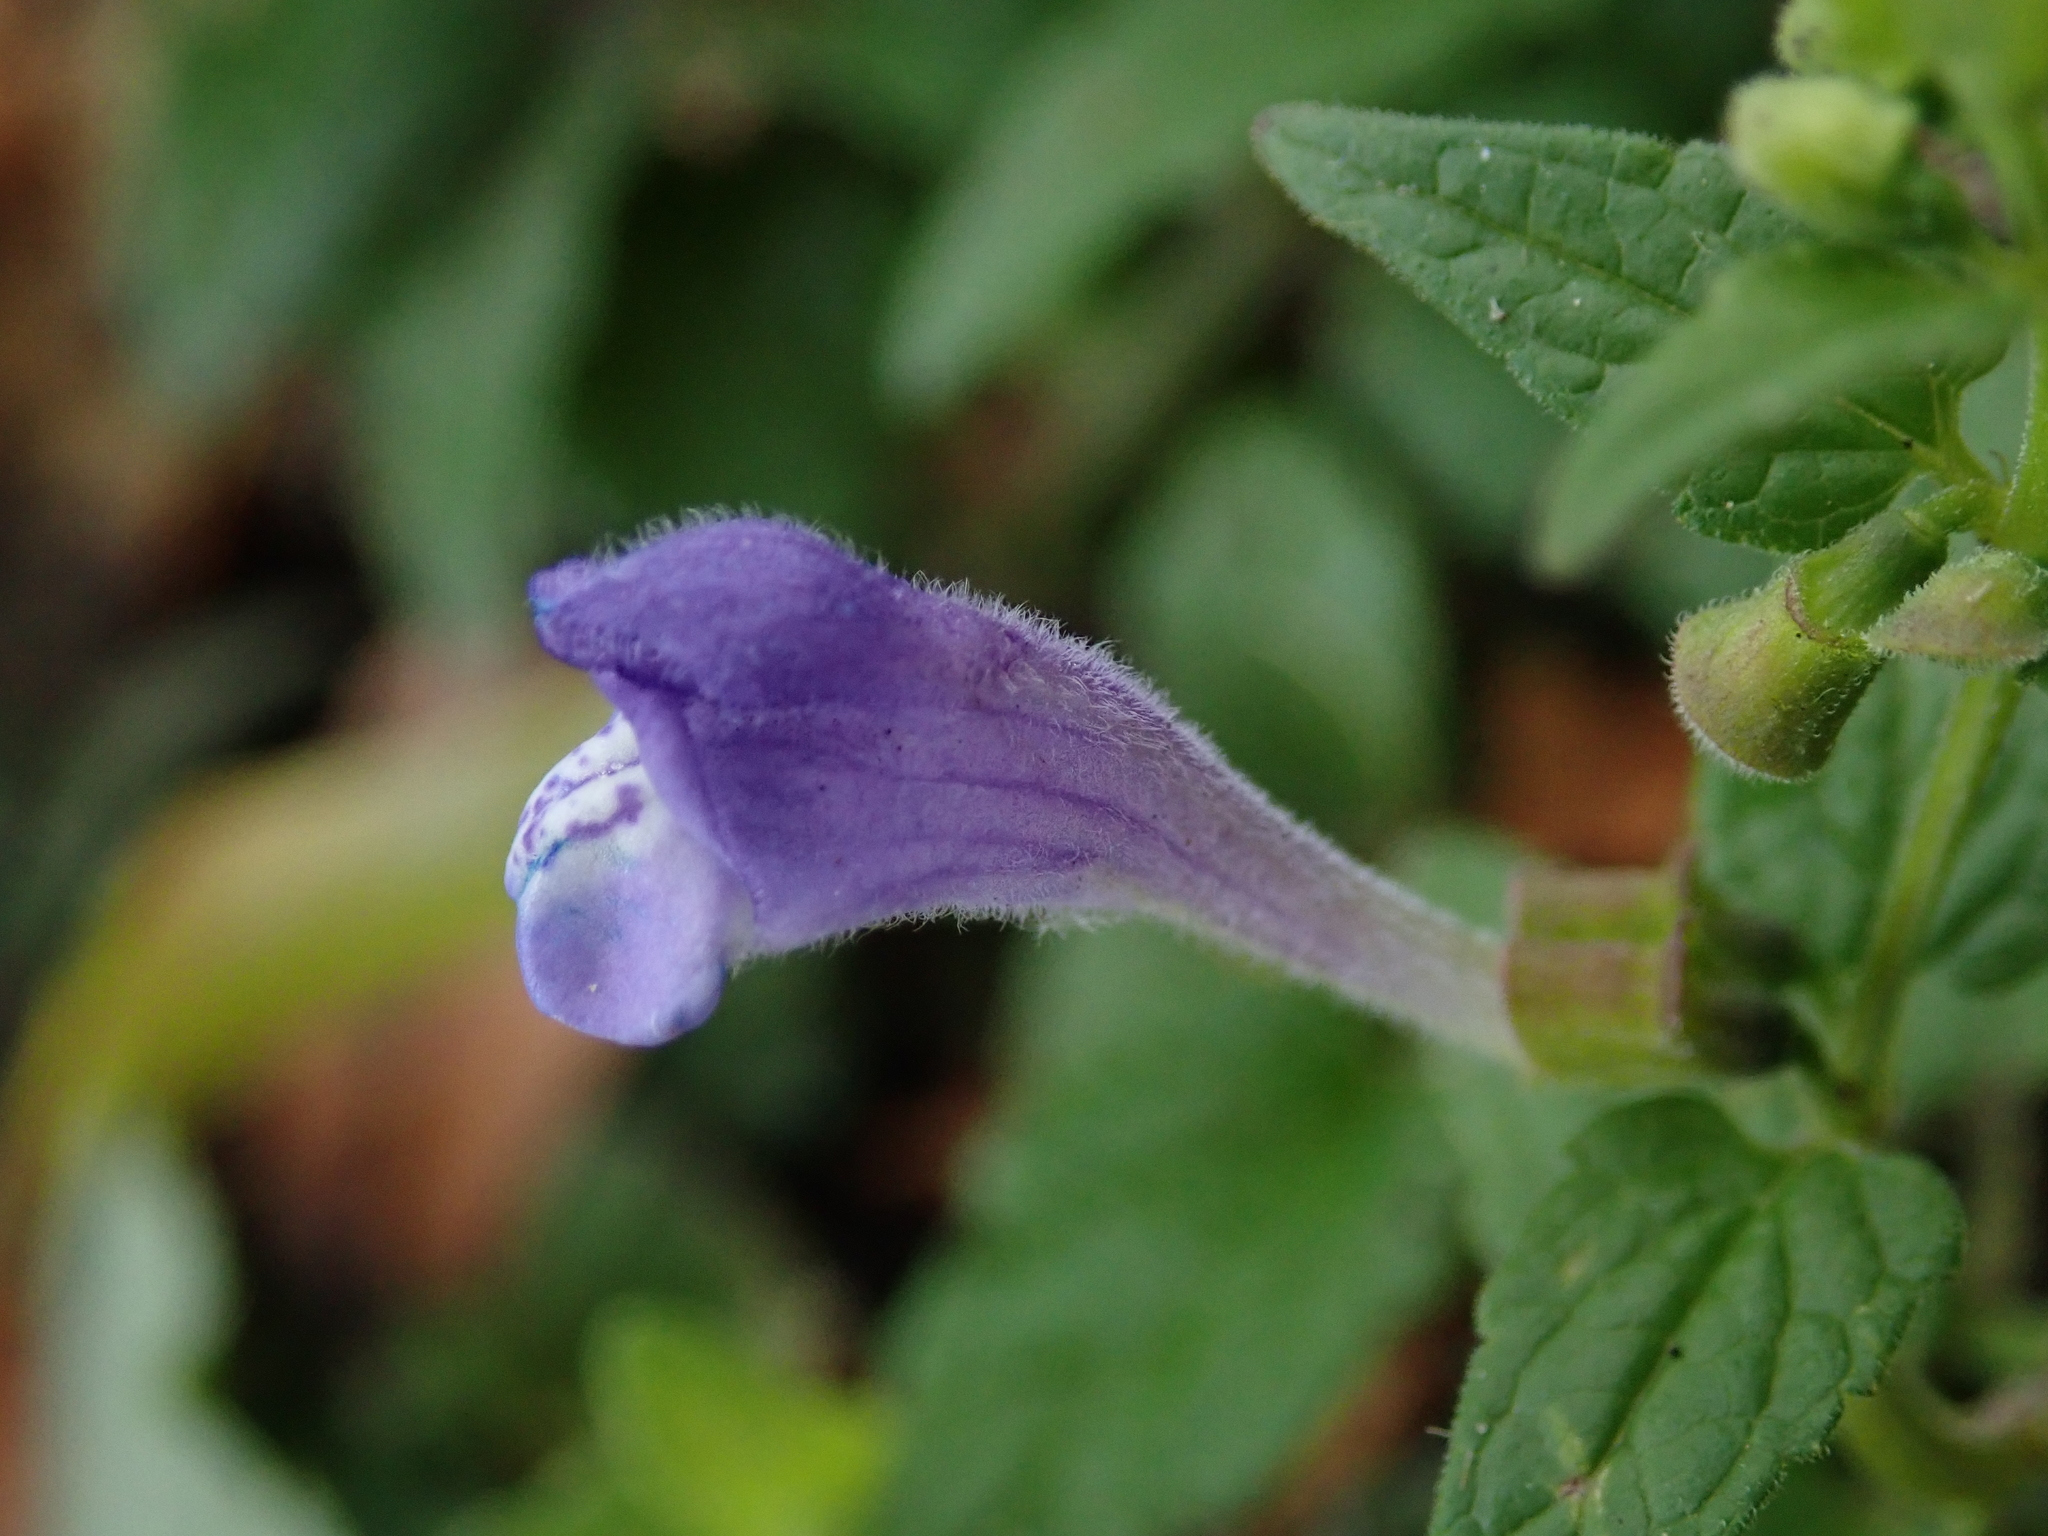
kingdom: Plantae
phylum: Tracheophyta
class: Magnoliopsida
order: Lamiales
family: Lamiaceae
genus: Scutellaria
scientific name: Scutellaria galericulata
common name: Skullcap
